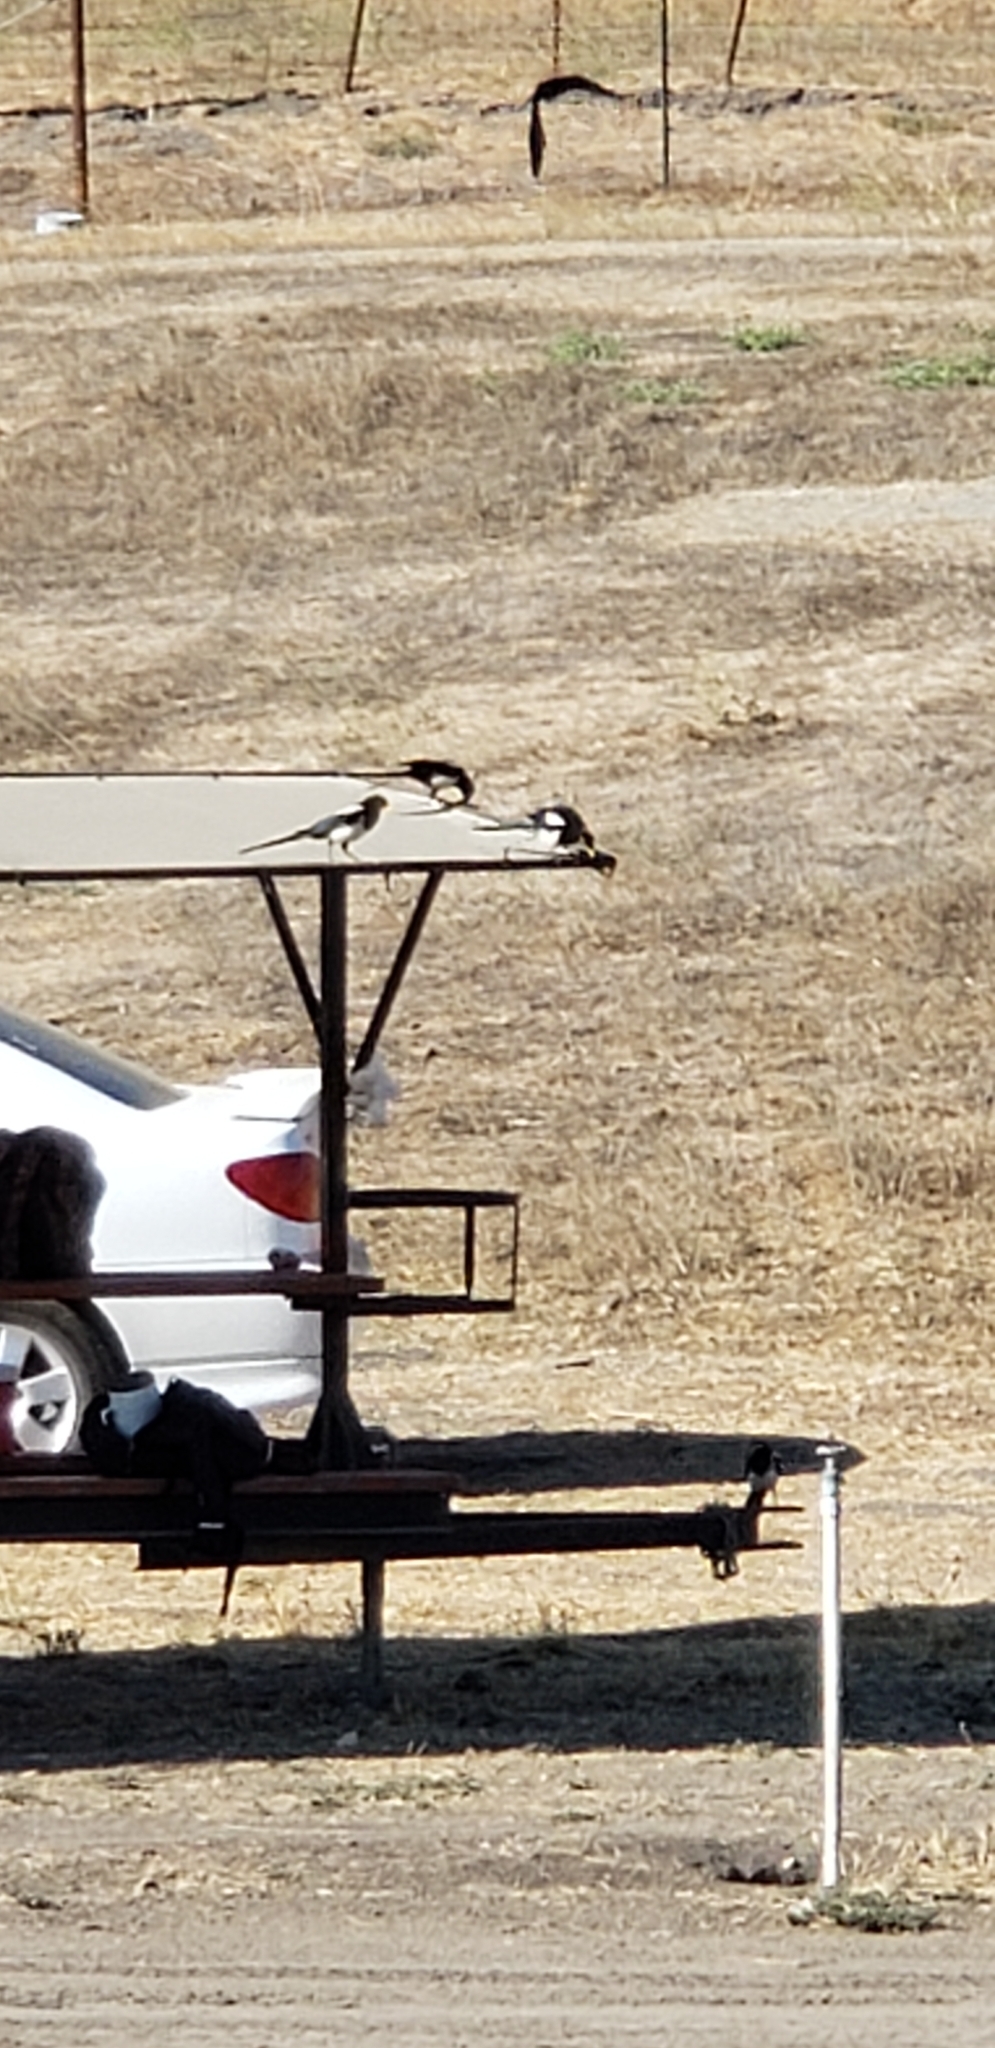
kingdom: Animalia
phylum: Chordata
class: Aves
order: Passeriformes
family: Corvidae
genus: Pica
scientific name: Pica nuttalli
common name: Yellow-billed magpie
